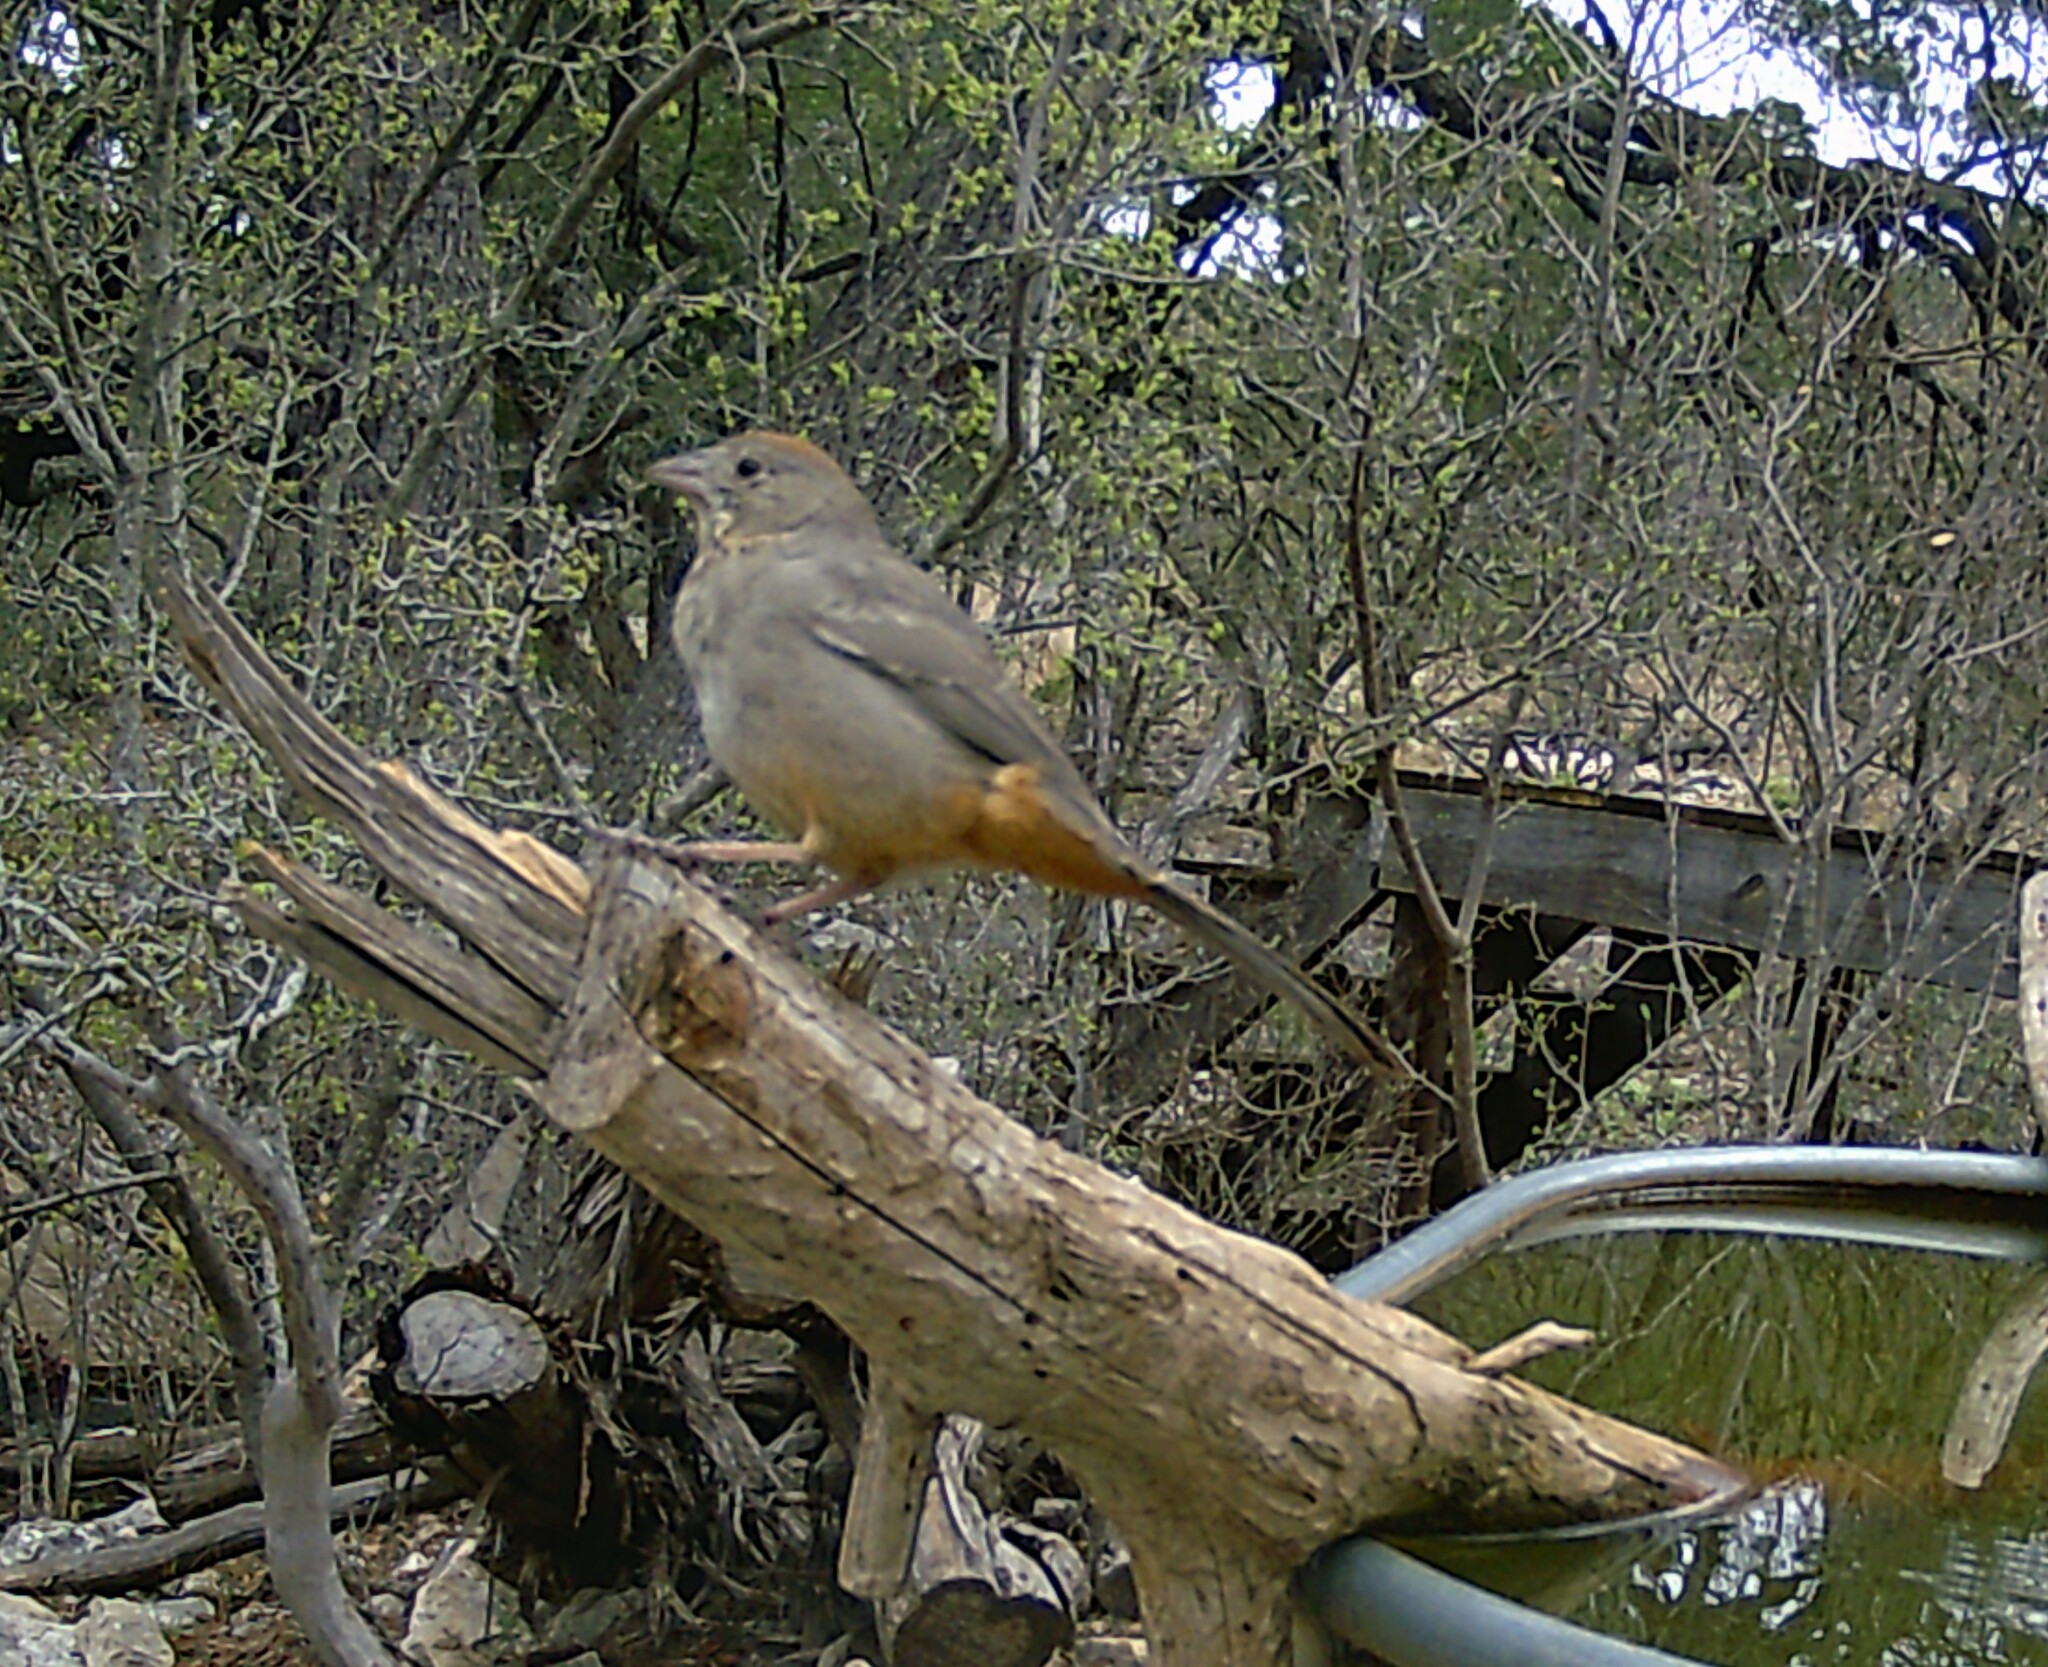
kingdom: Animalia
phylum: Chordata
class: Aves
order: Passeriformes
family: Passerellidae
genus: Melozone
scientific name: Melozone fusca
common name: Canyon towhee
